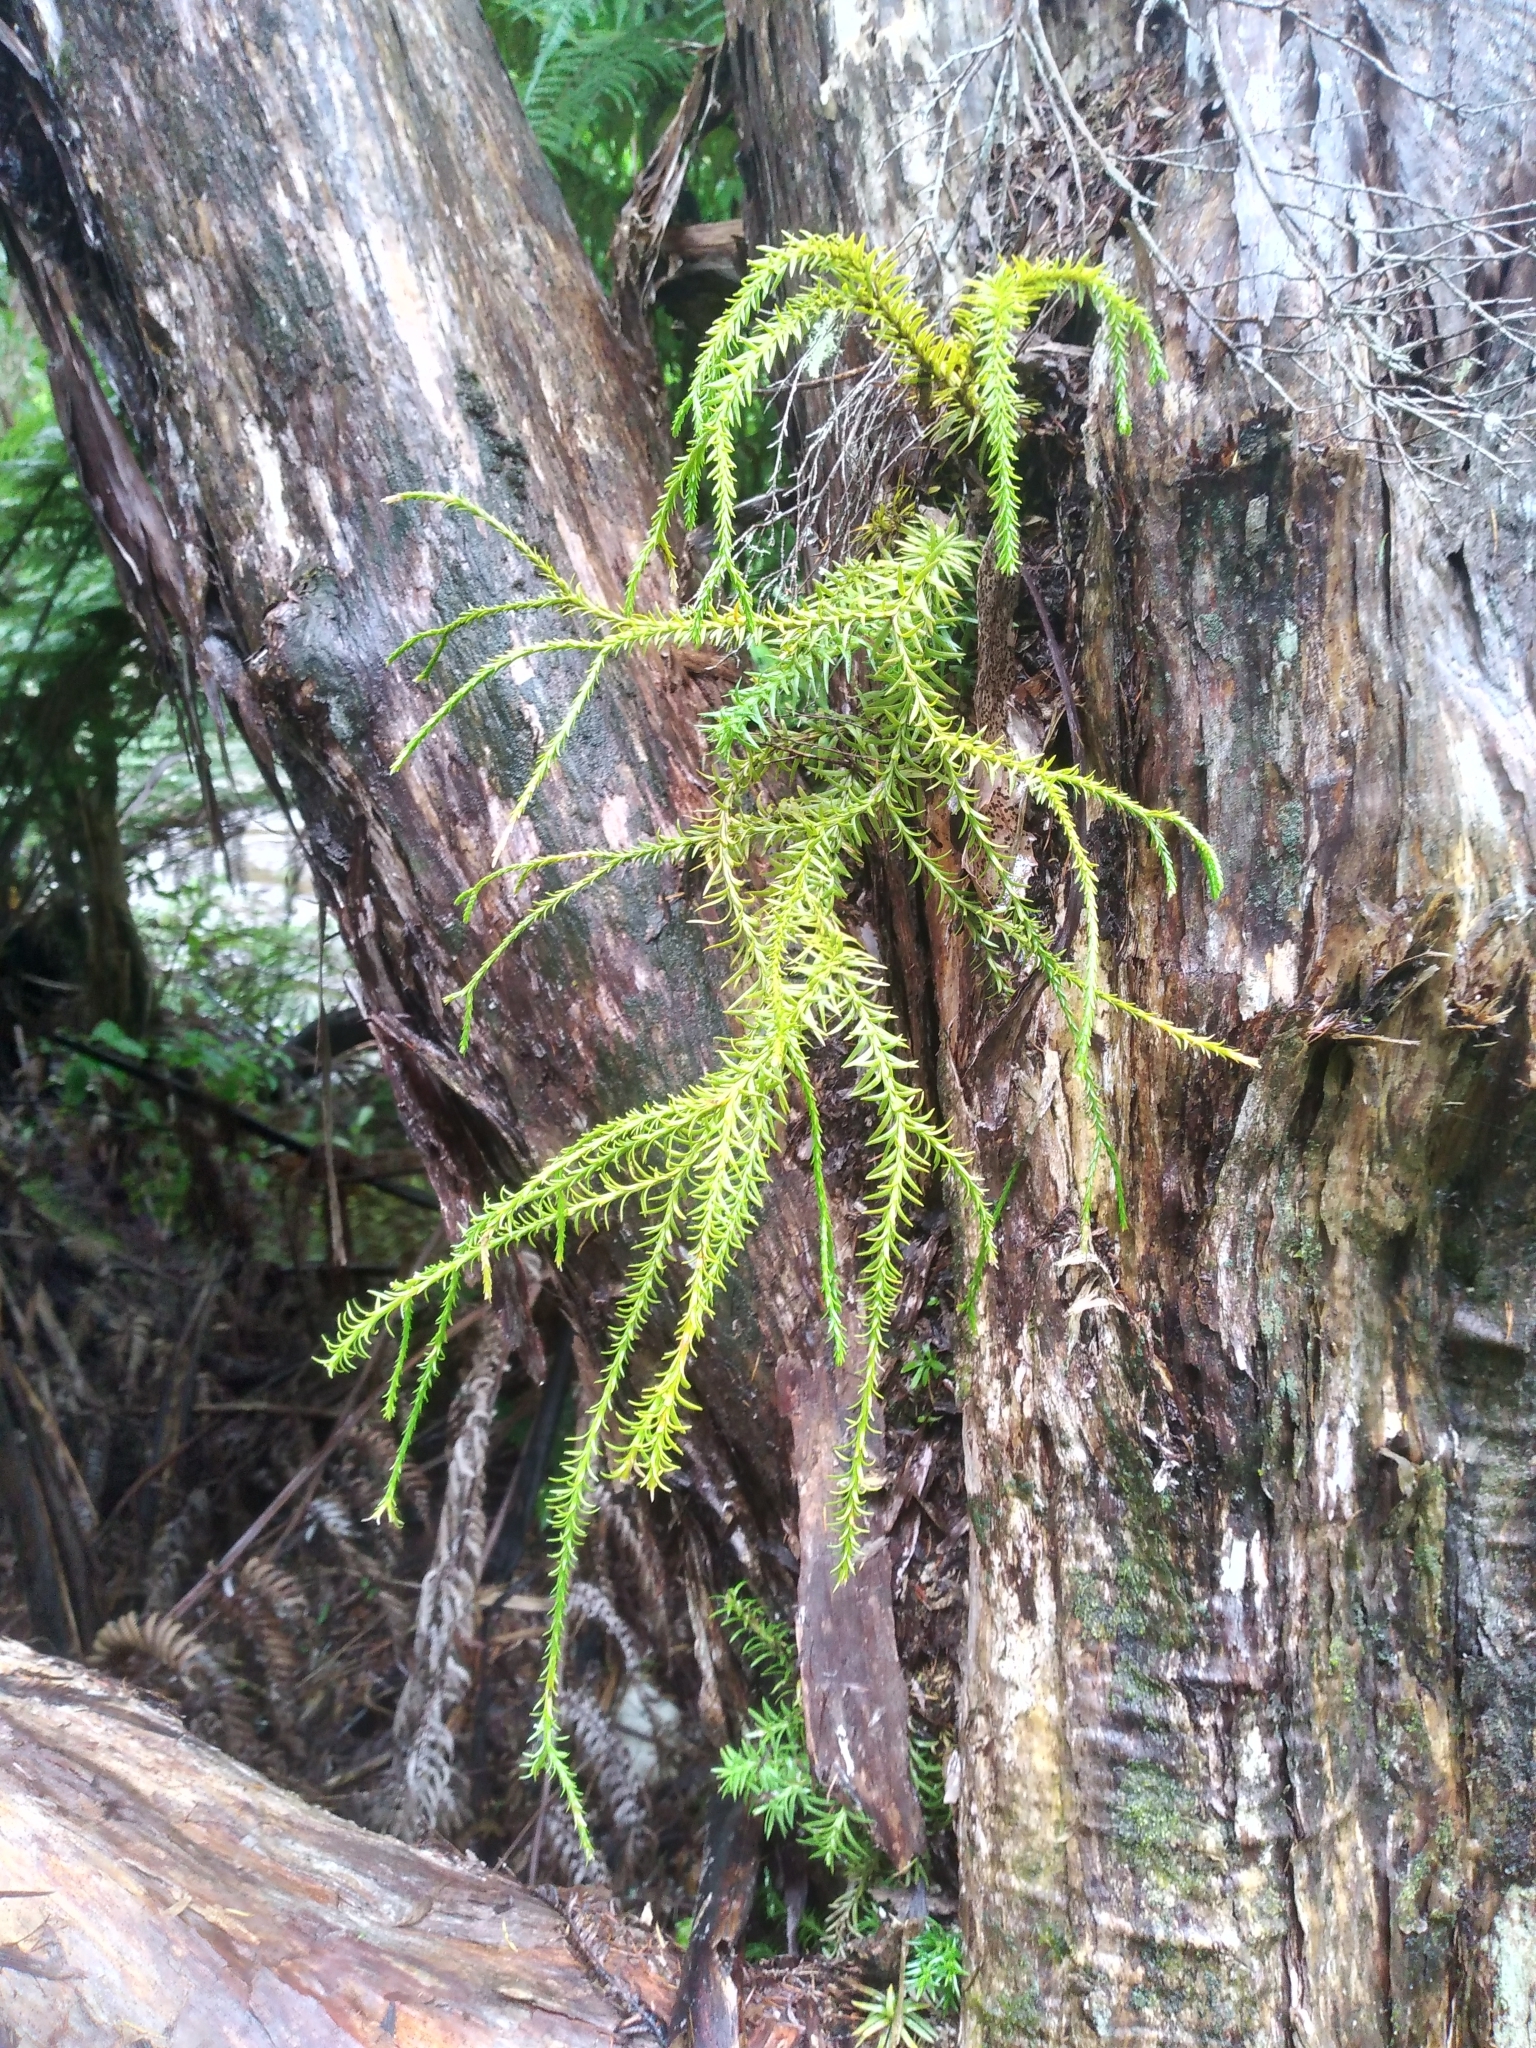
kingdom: Plantae
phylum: Tracheophyta
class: Lycopodiopsida
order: Lycopodiales
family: Lycopodiaceae
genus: Phlegmariurus
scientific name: Phlegmariurus billardierei
